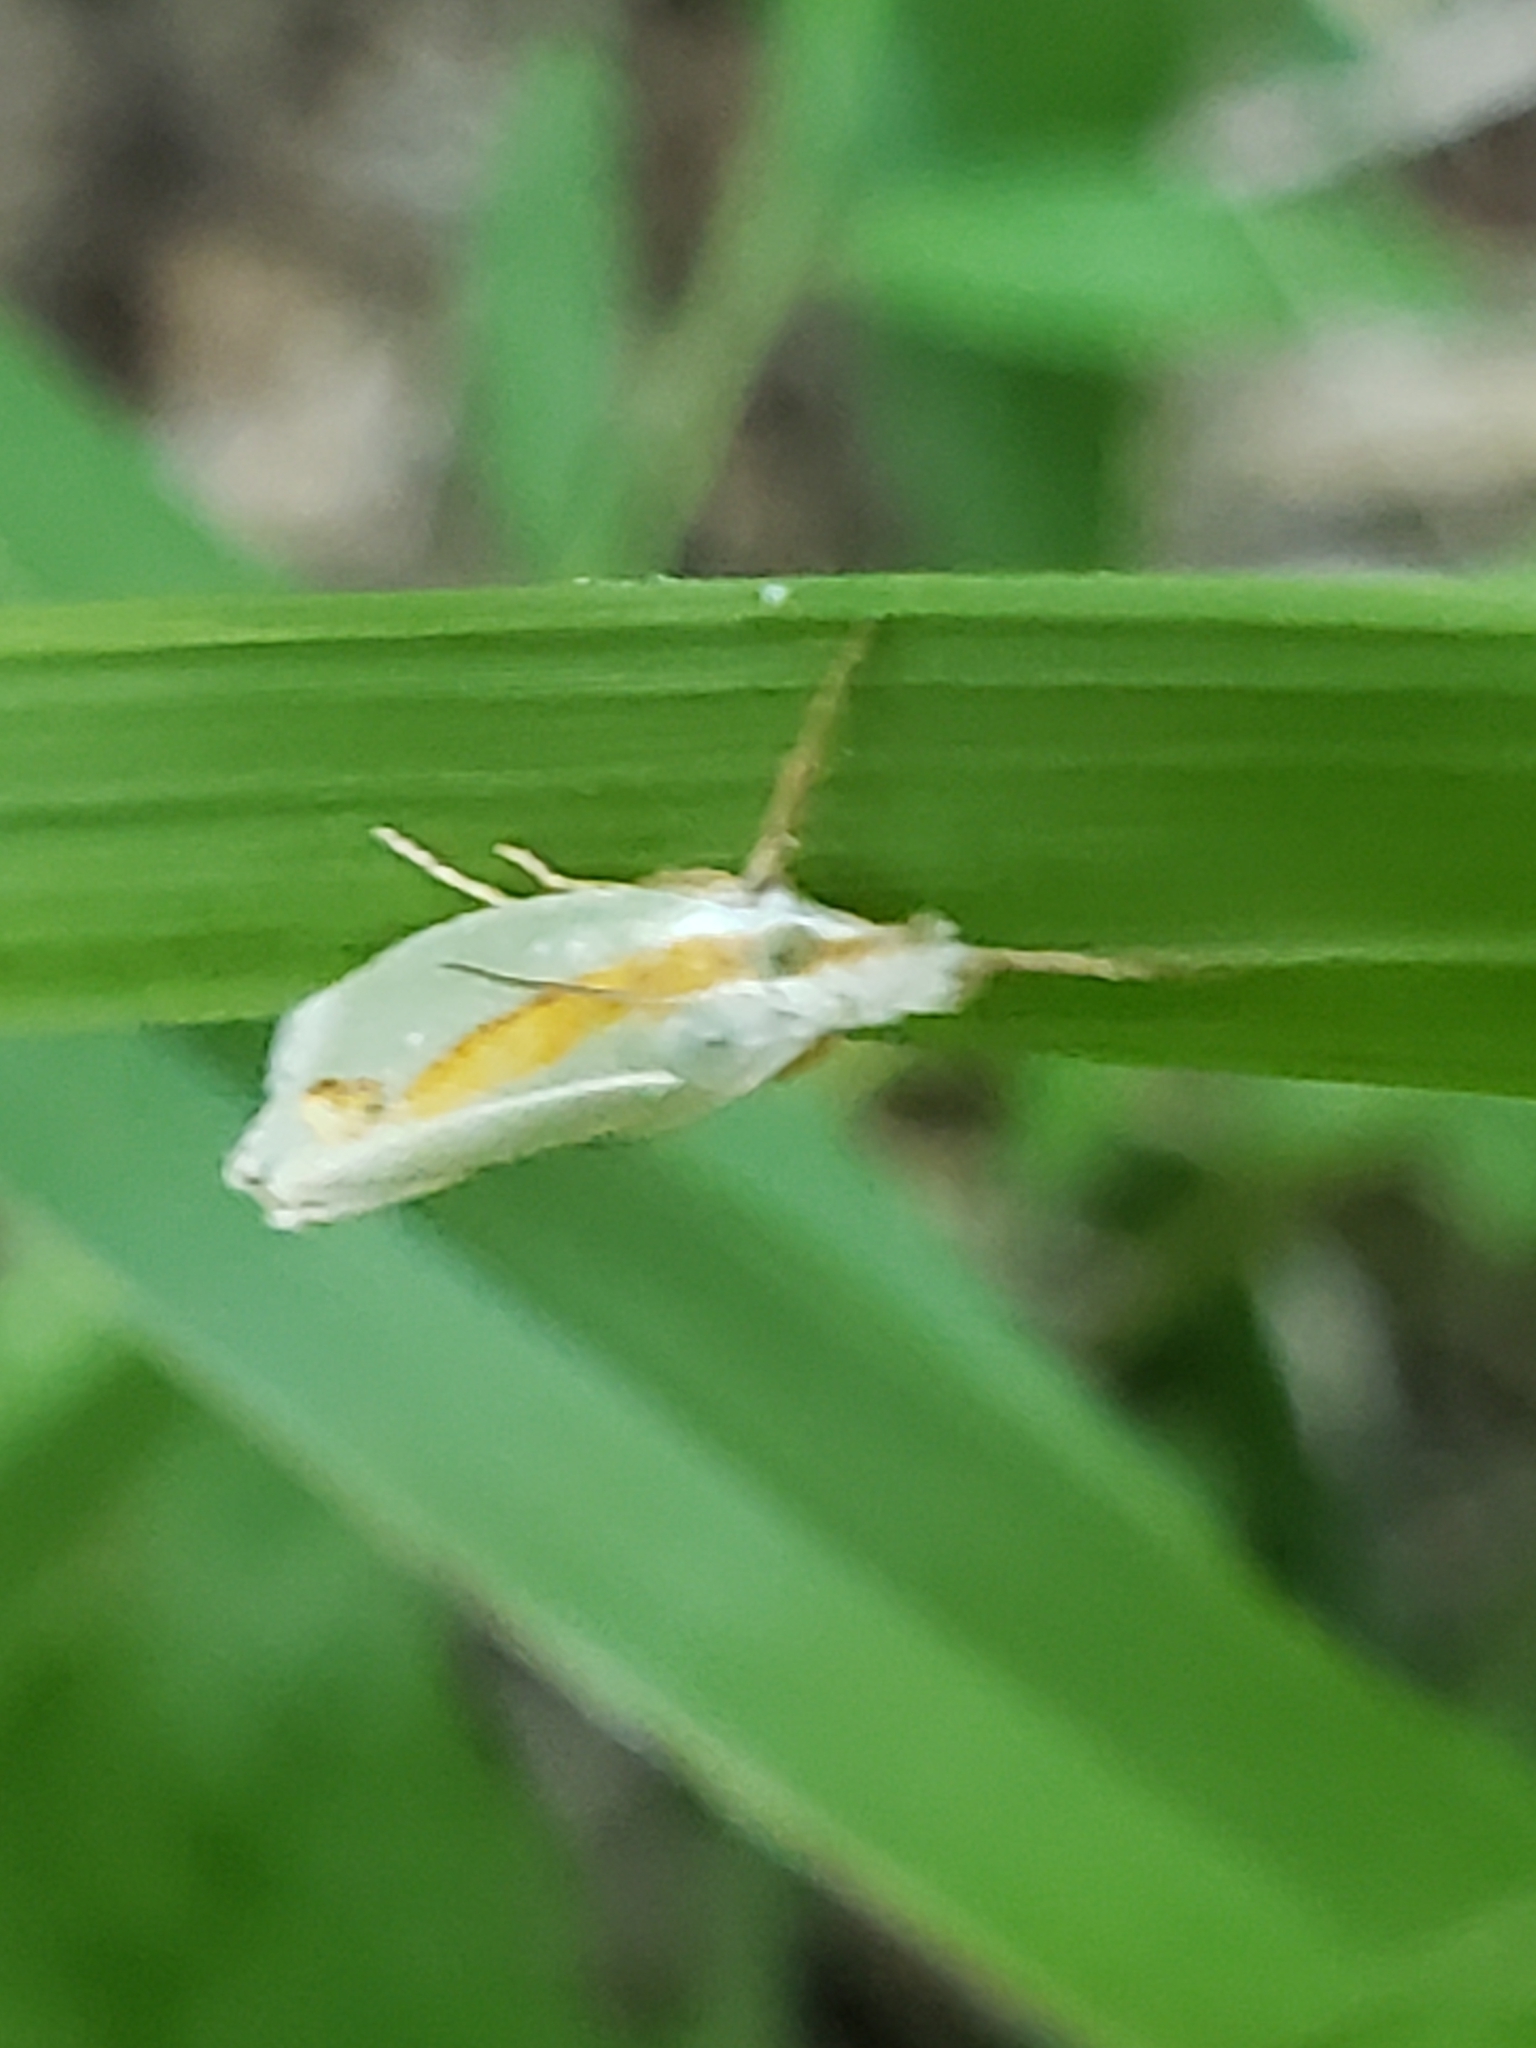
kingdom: Animalia
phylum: Arthropoda
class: Insecta
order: Lepidoptera
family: Crambidae
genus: Crambus
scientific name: Crambus girardellus
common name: Girard's grass-veneer
